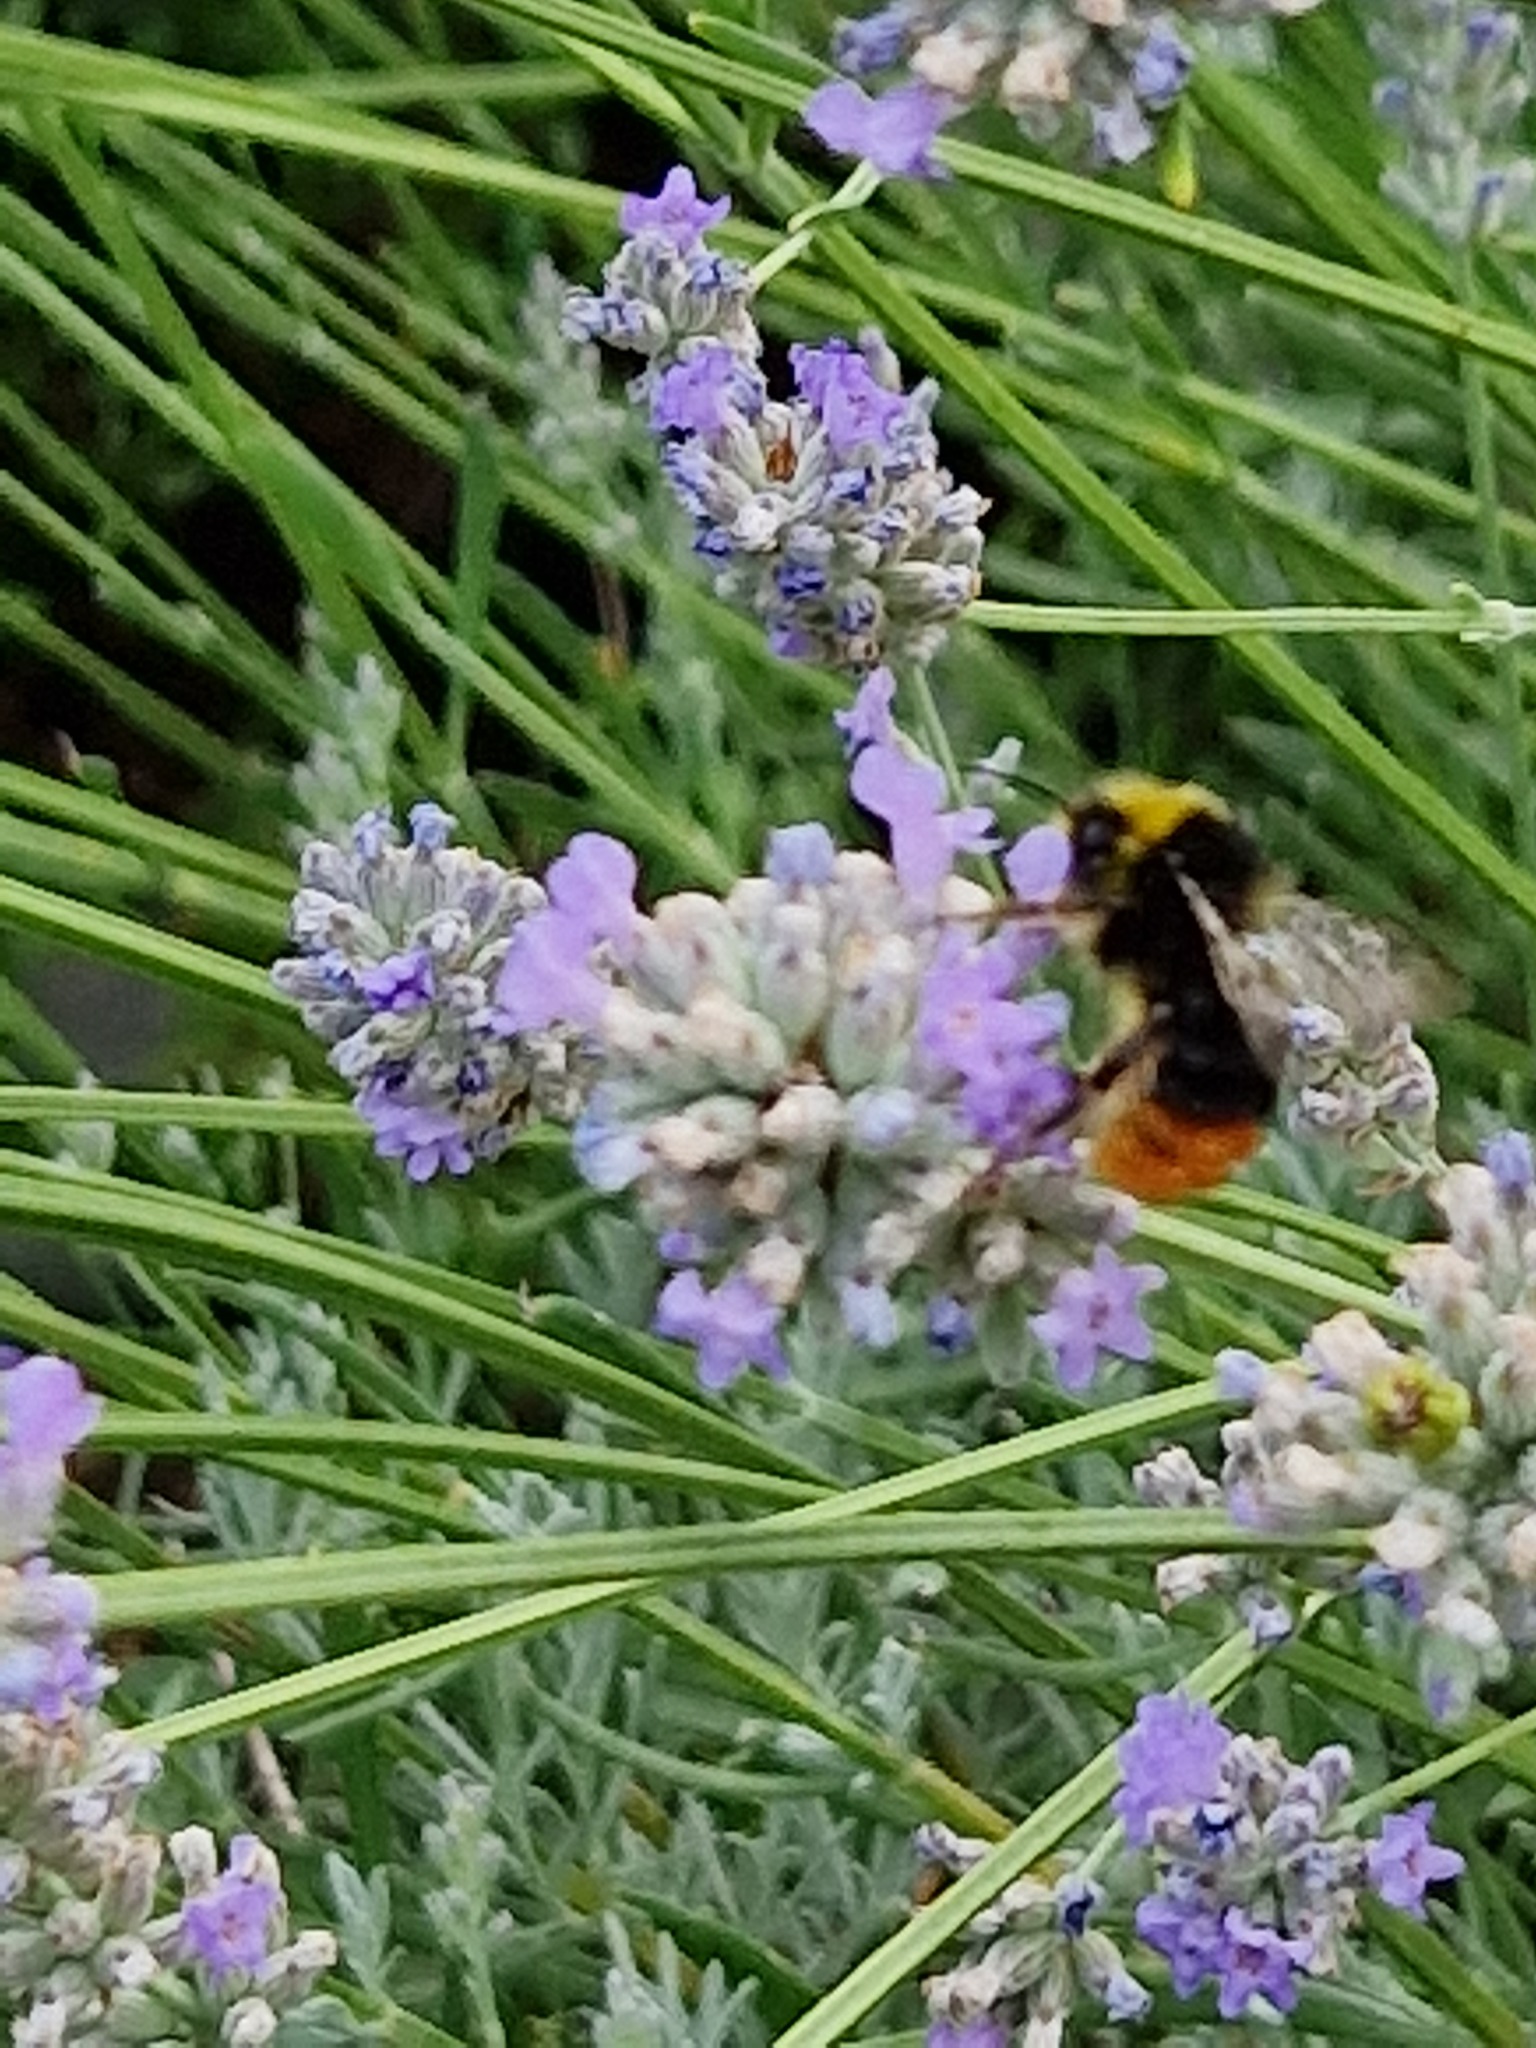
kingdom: Animalia
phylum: Arthropoda
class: Insecta
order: Hymenoptera
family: Apidae
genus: Bombus
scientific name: Bombus lapidarius
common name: Large red-tailed humble-bee
